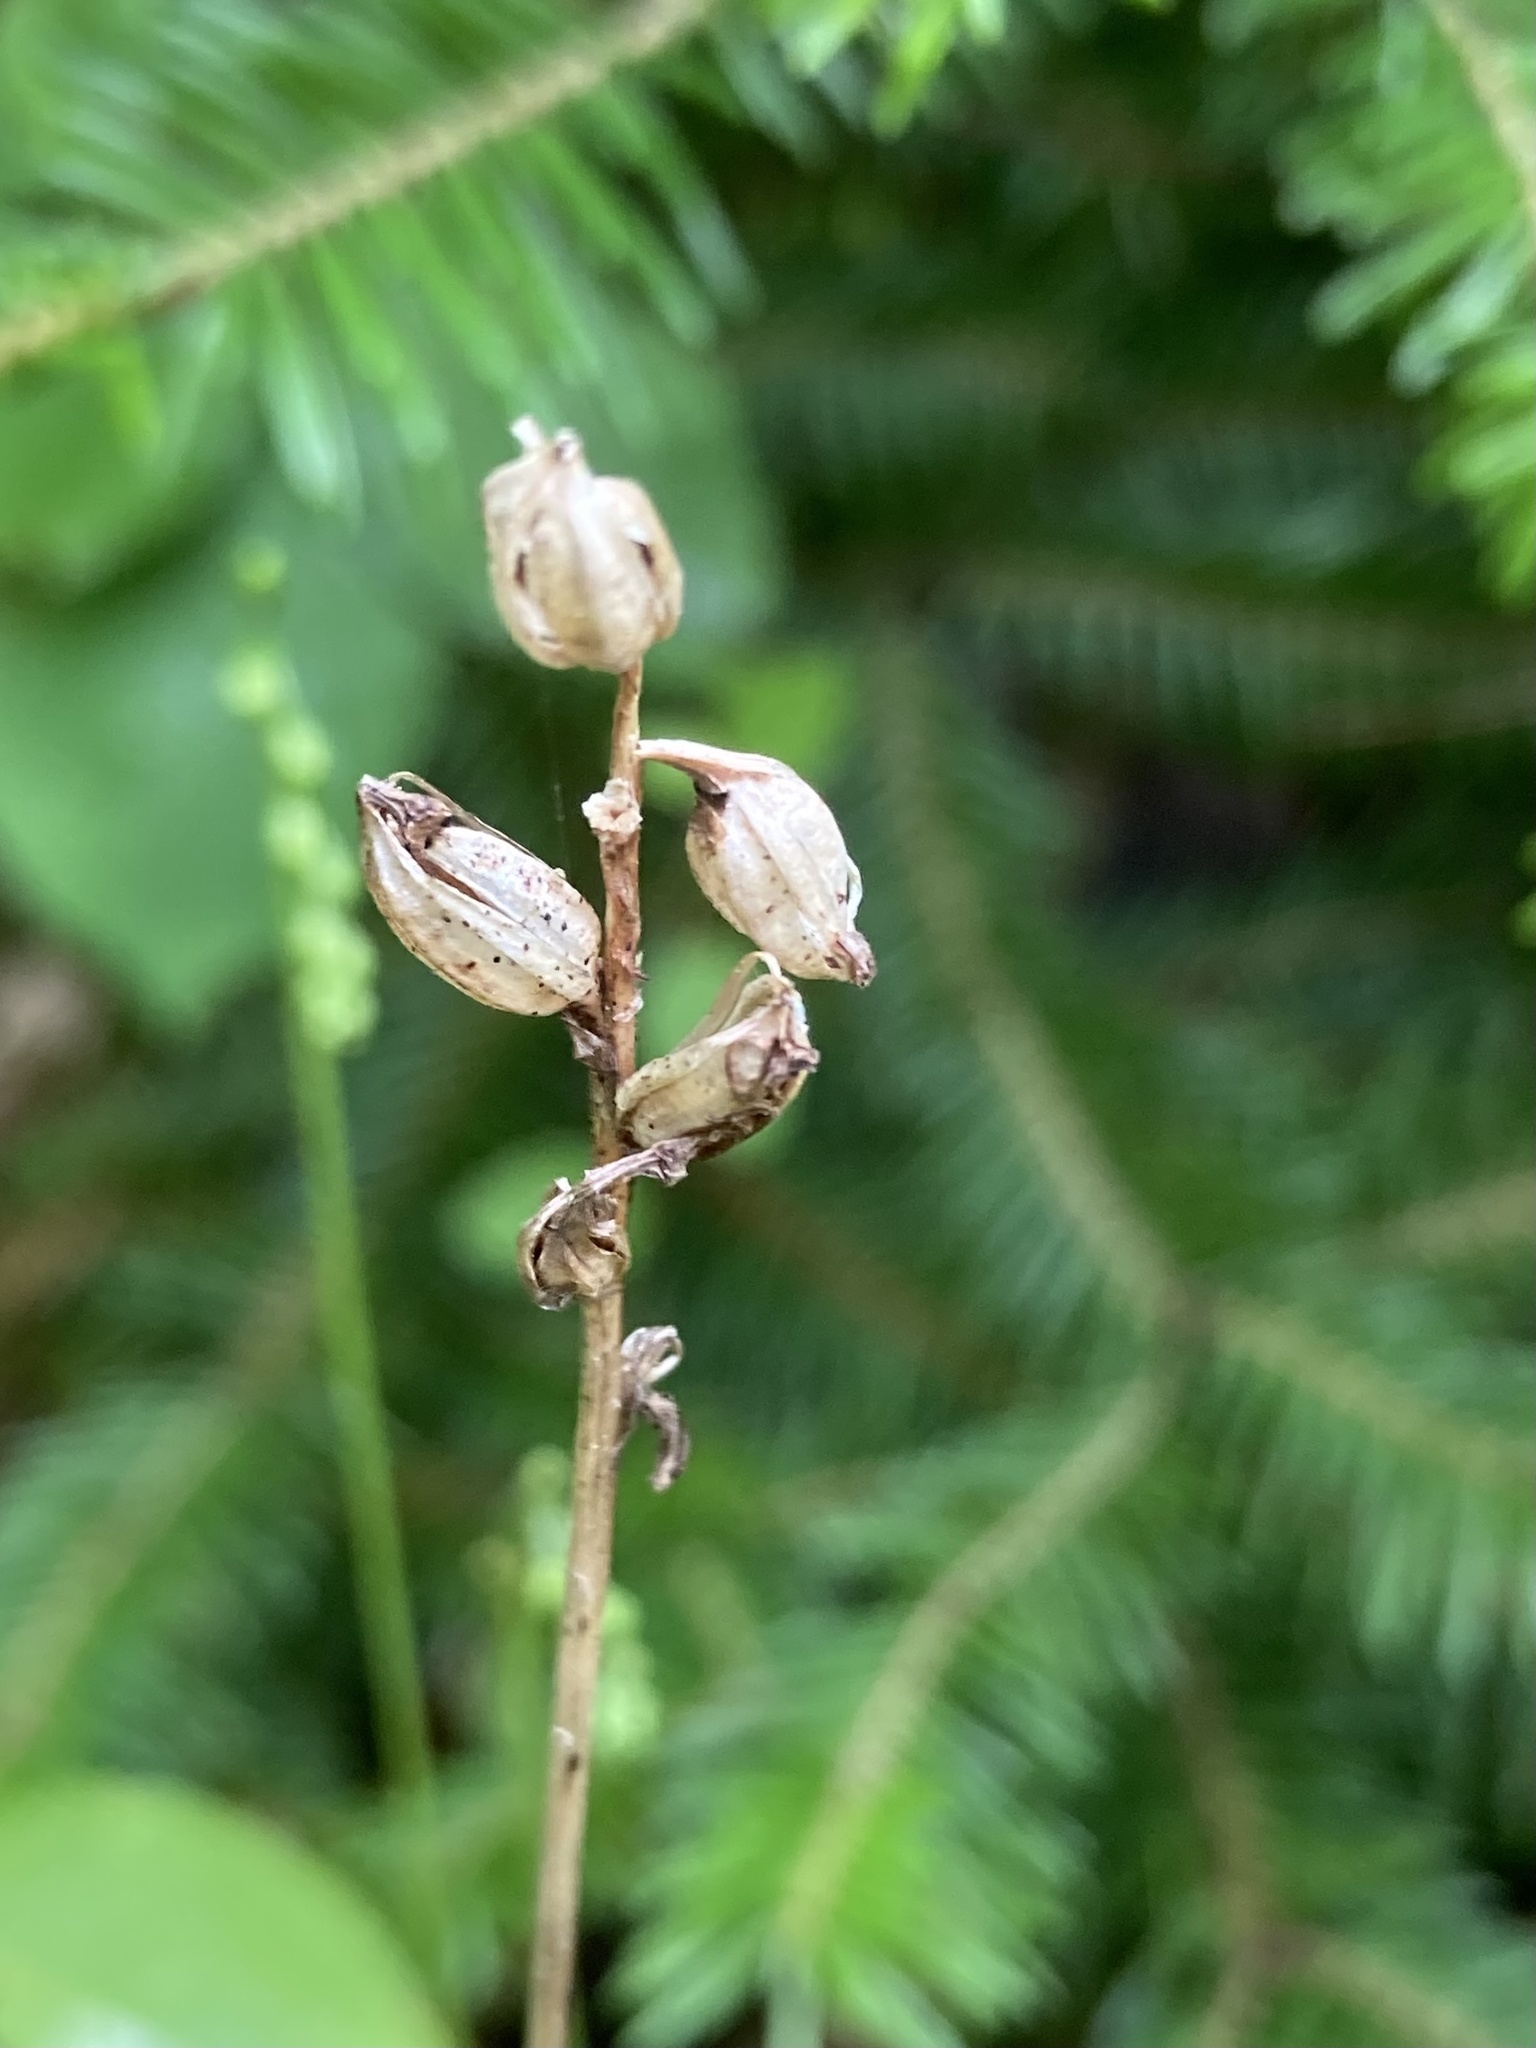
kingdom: Plantae
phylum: Tracheophyta
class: Liliopsida
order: Asparagales
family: Orchidaceae
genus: Platanthera
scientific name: Platanthera clavellata
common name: Club-spur orchid
